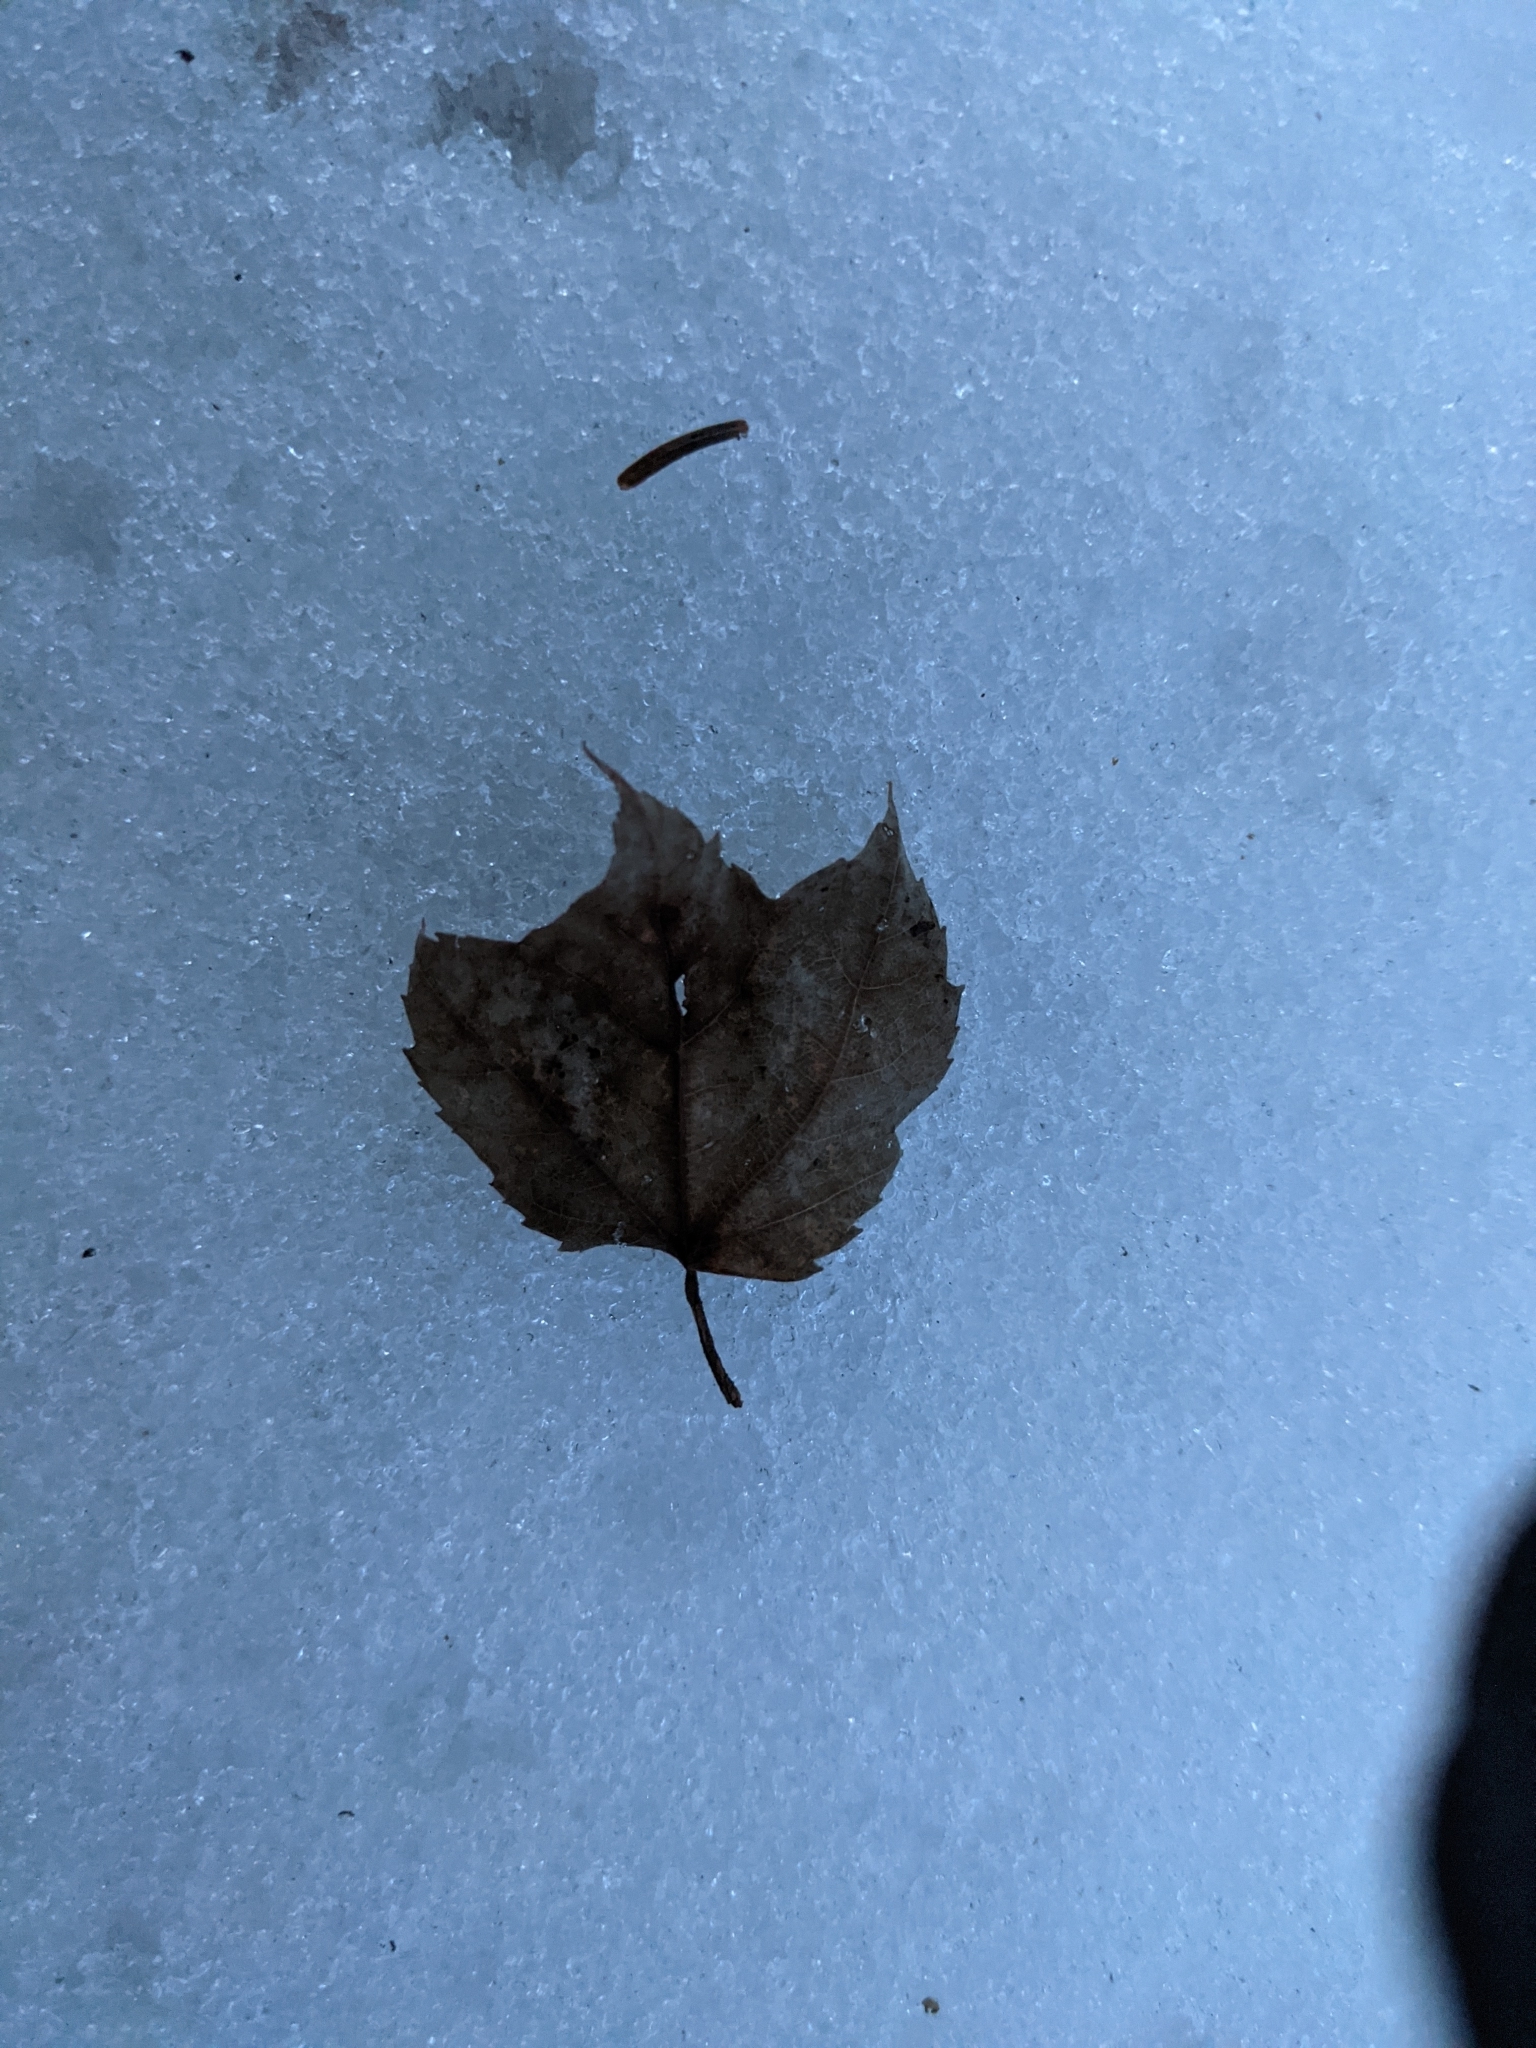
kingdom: Plantae
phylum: Tracheophyta
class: Magnoliopsida
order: Sapindales
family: Sapindaceae
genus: Acer
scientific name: Acer rubrum
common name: Red maple
